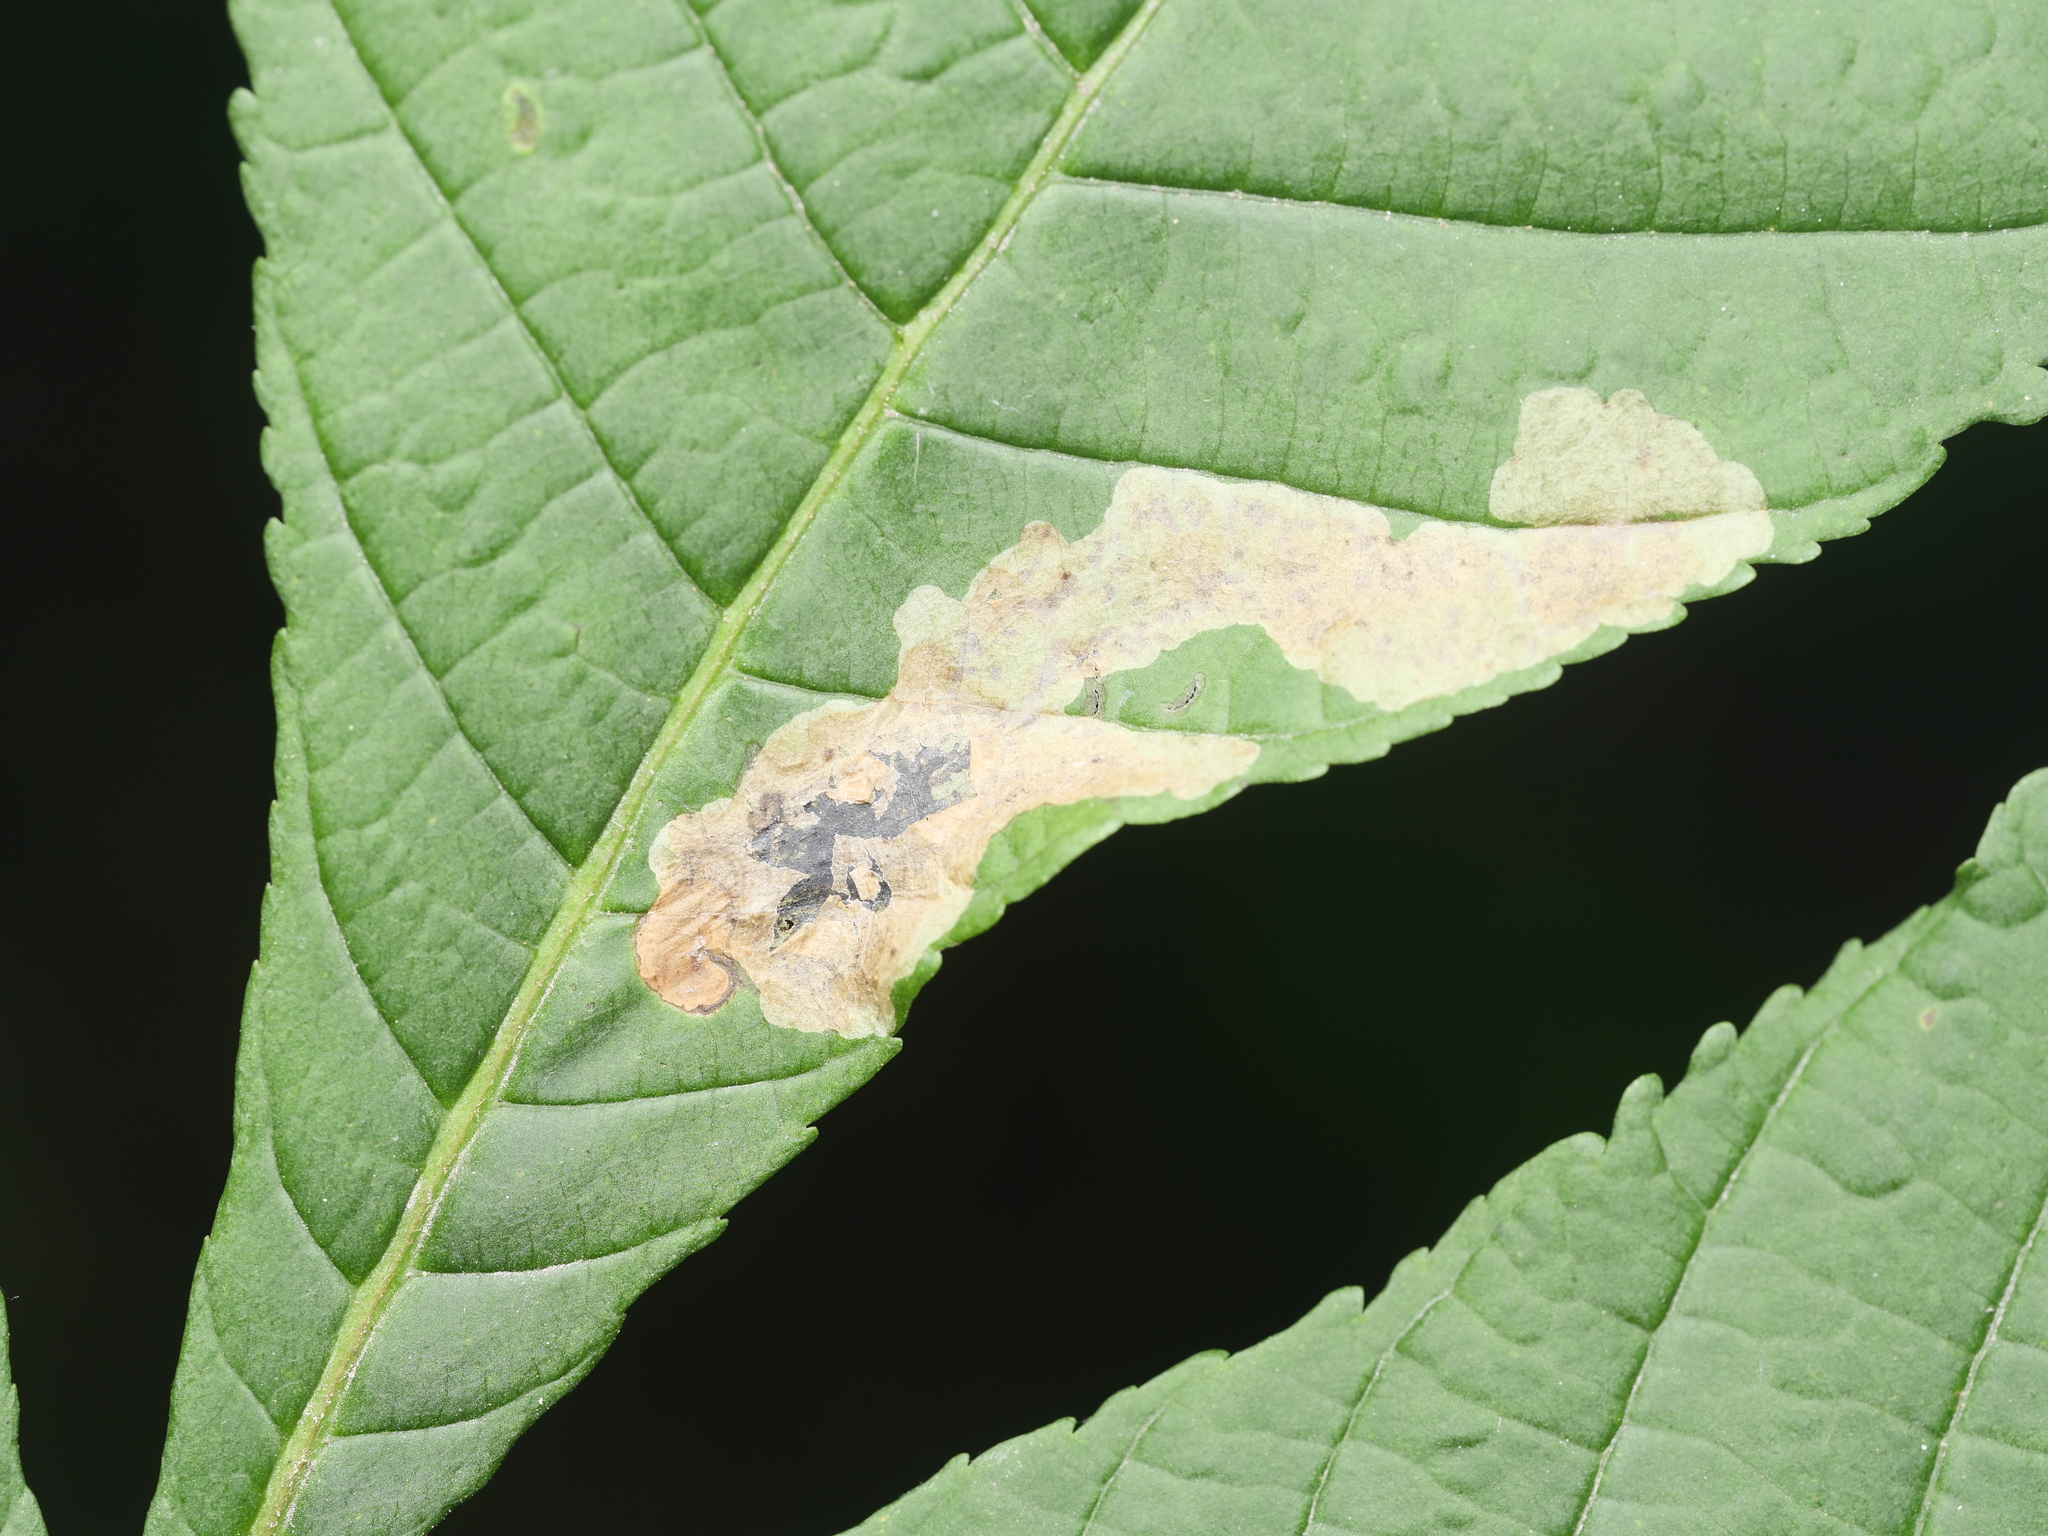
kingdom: Animalia
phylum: Arthropoda
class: Insecta
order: Lepidoptera
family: Gracillariidae
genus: Cameraria
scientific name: Cameraria ohridella
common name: Horse-chestnut leaf-miner
